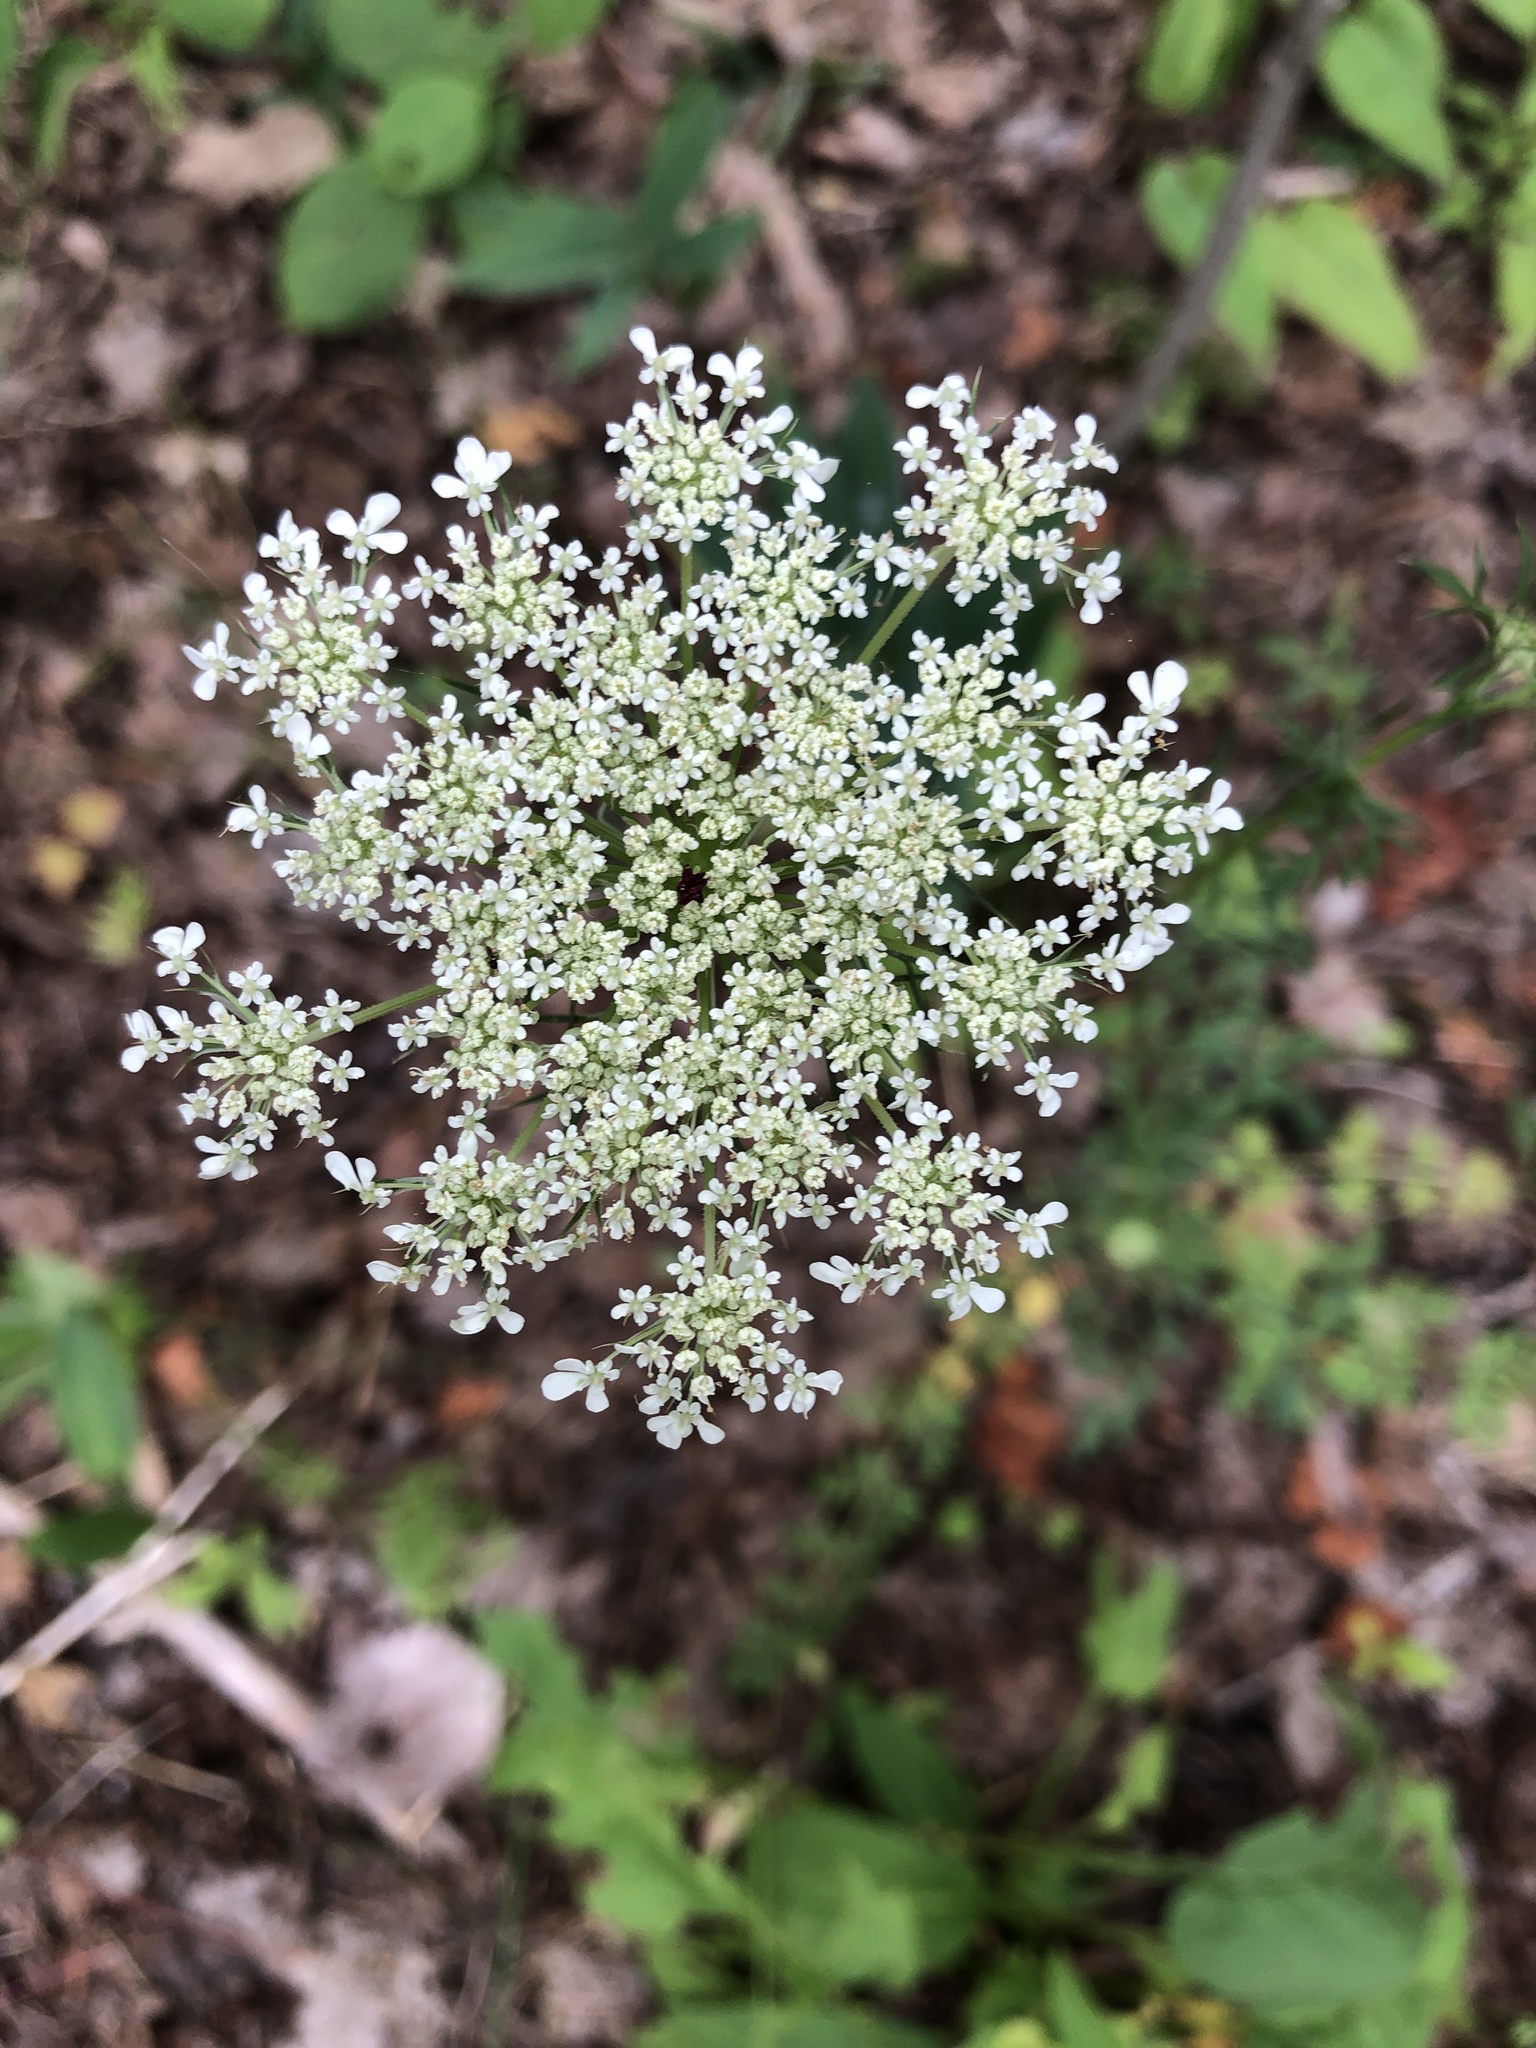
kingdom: Plantae
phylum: Tracheophyta
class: Magnoliopsida
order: Apiales
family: Apiaceae
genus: Daucus
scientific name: Daucus carota
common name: Wild carrot
